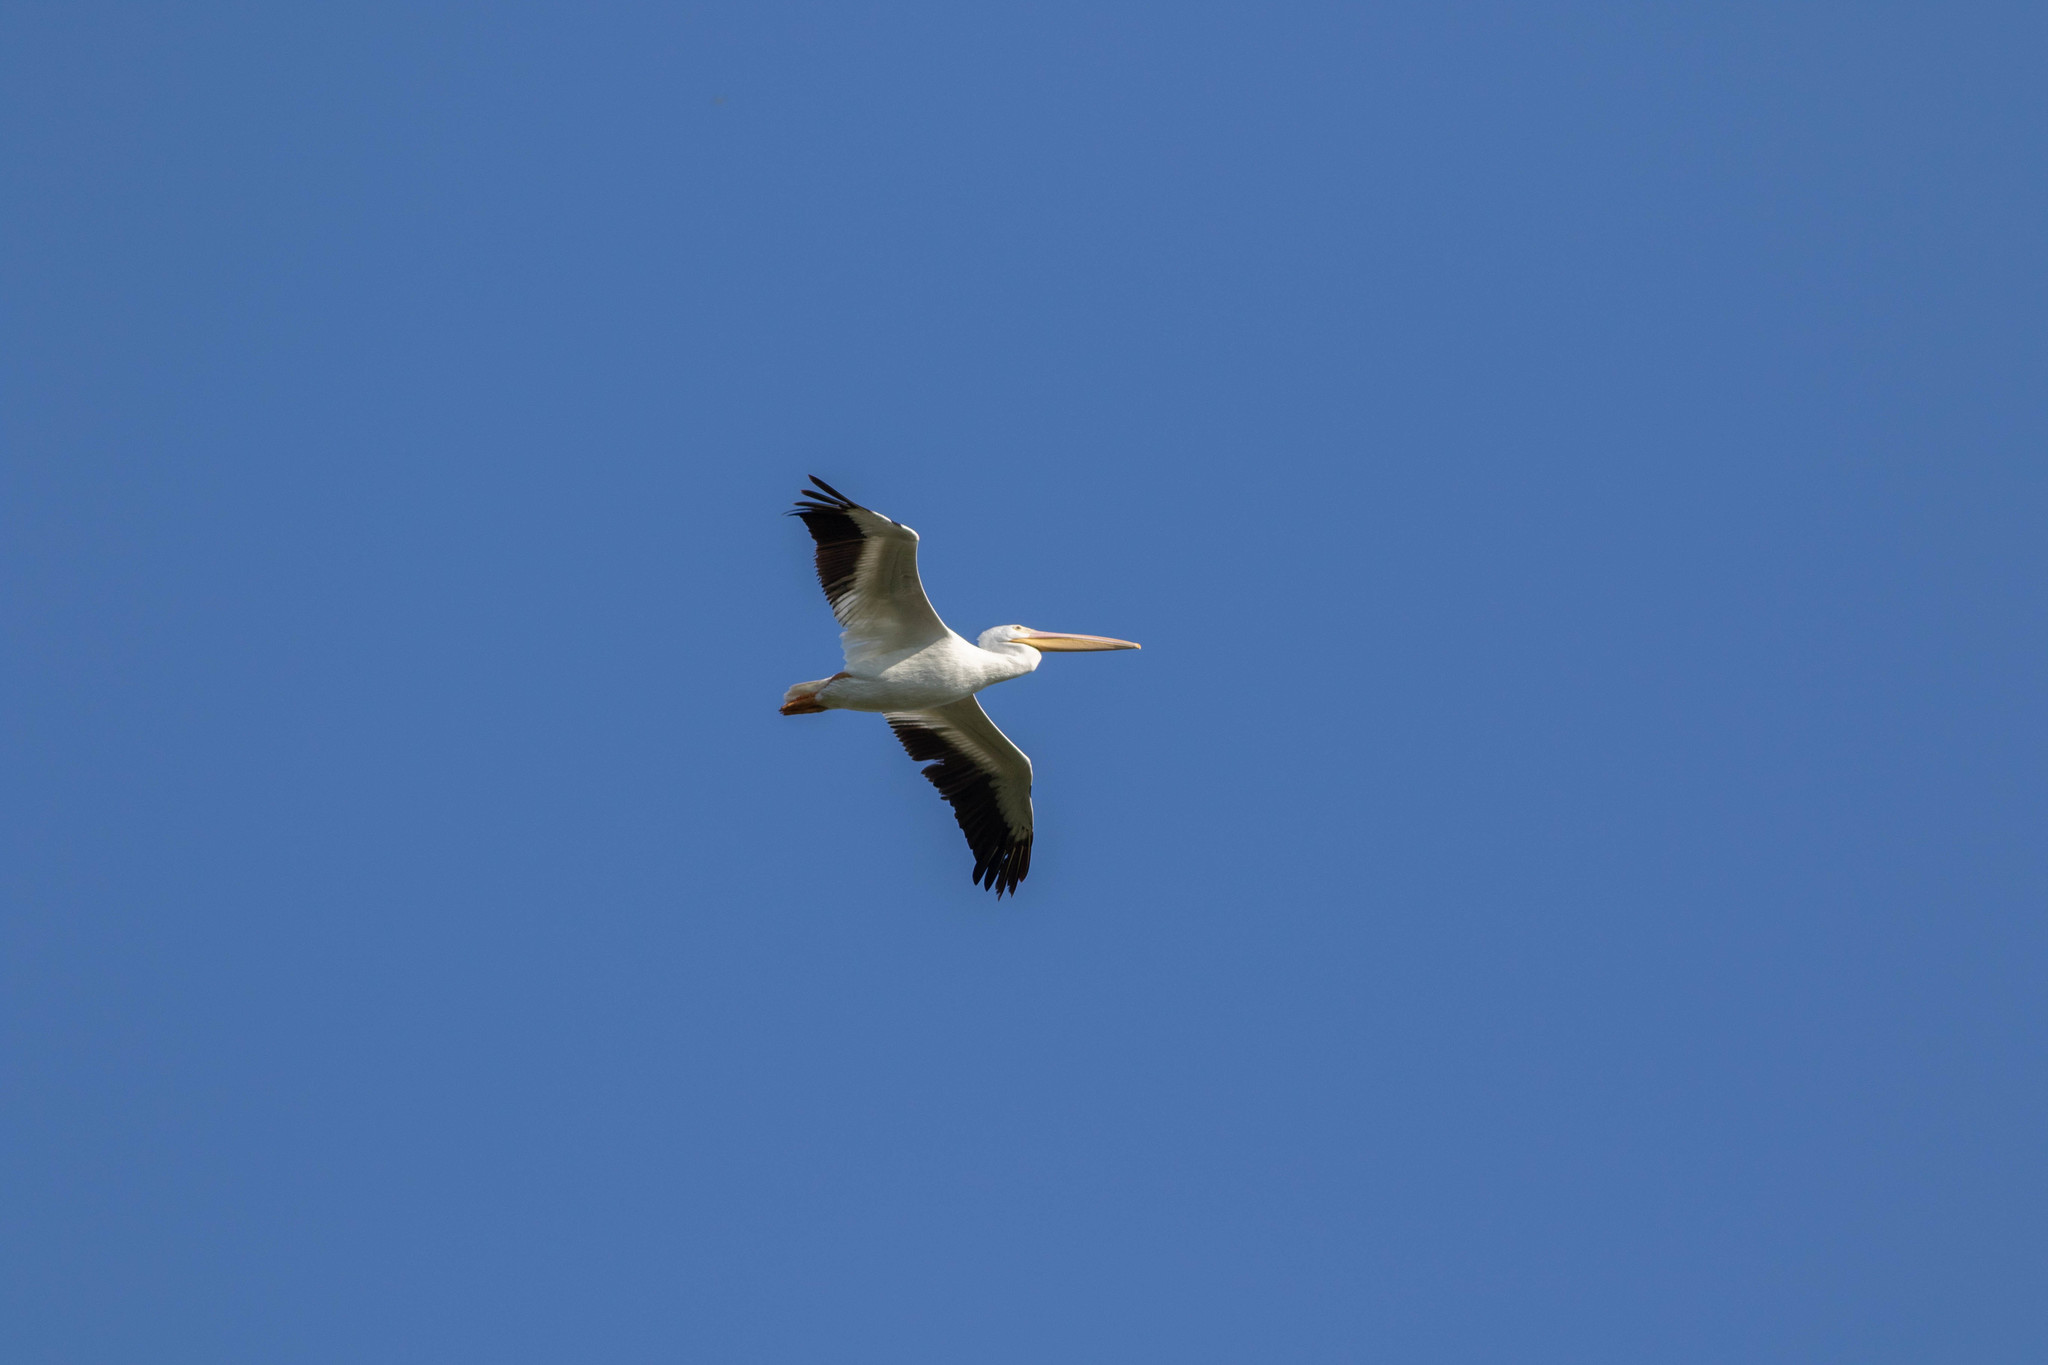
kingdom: Animalia
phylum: Chordata
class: Aves
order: Pelecaniformes
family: Pelecanidae
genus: Pelecanus
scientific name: Pelecanus erythrorhynchos
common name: American white pelican
